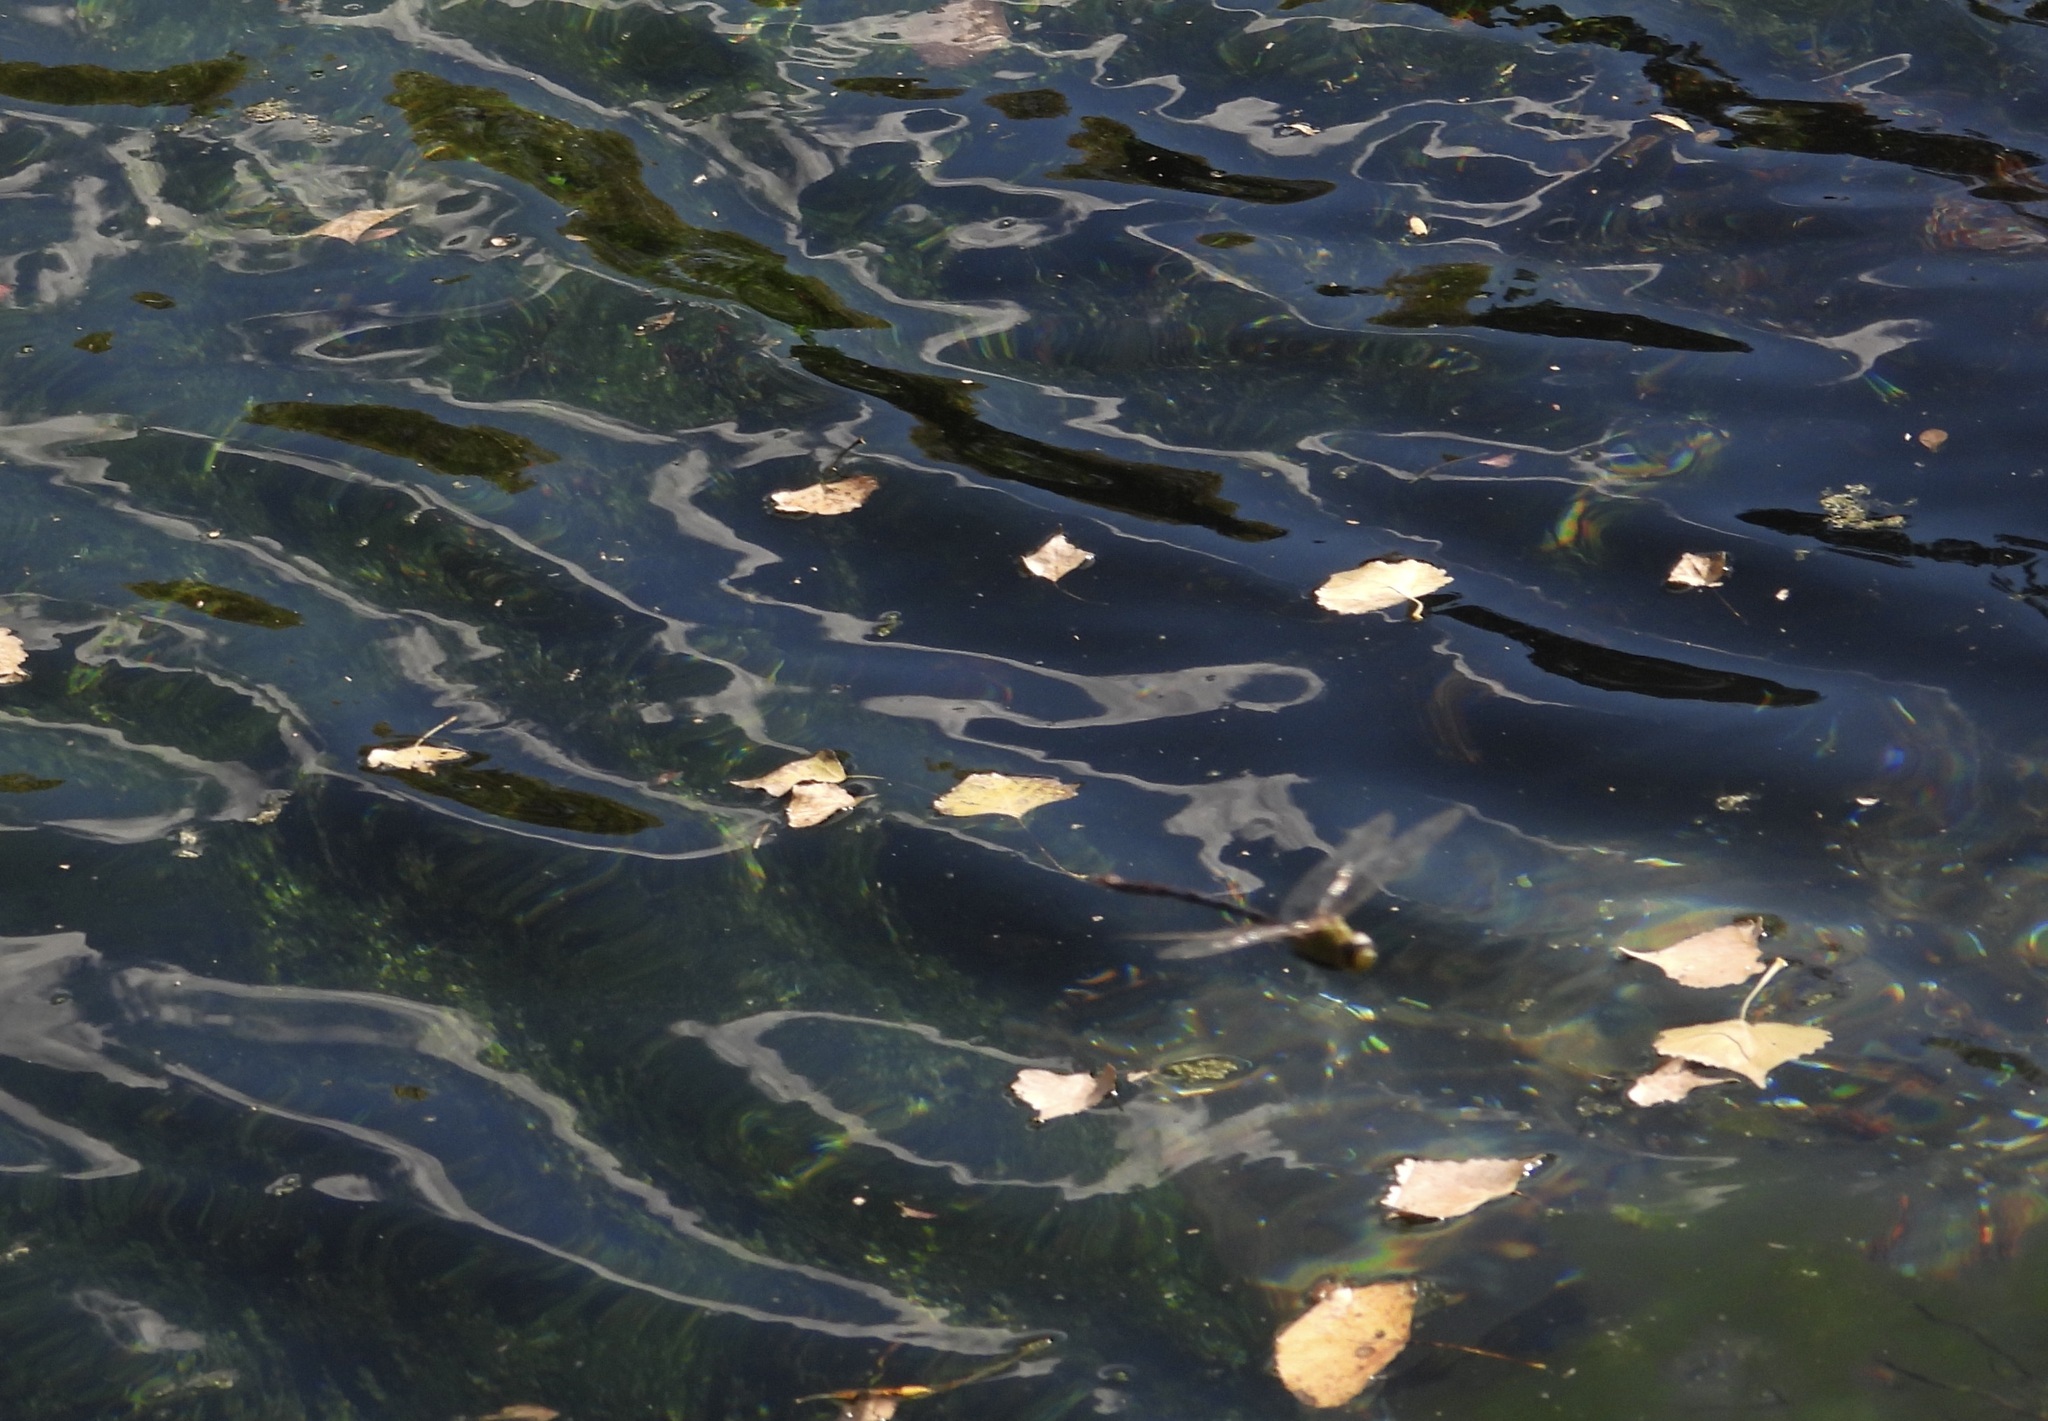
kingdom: Animalia
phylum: Arthropoda
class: Insecta
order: Odonata
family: Aeshnidae
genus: Anax
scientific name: Anax walsinghami
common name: Giant darner
